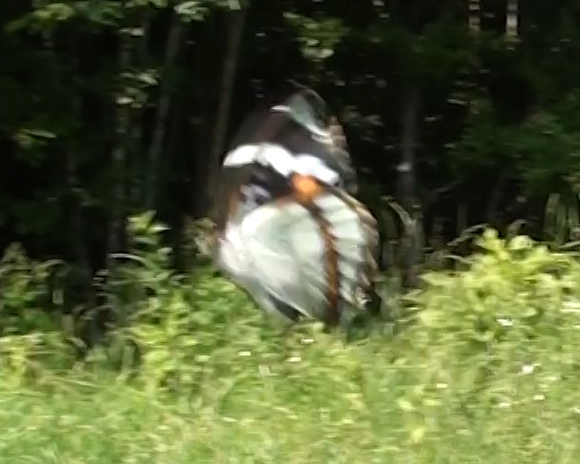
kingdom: Animalia
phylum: Arthropoda
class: Insecta
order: Lepidoptera
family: Nymphalidae
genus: Apatura
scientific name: Apatura Mimathyma schrencki
